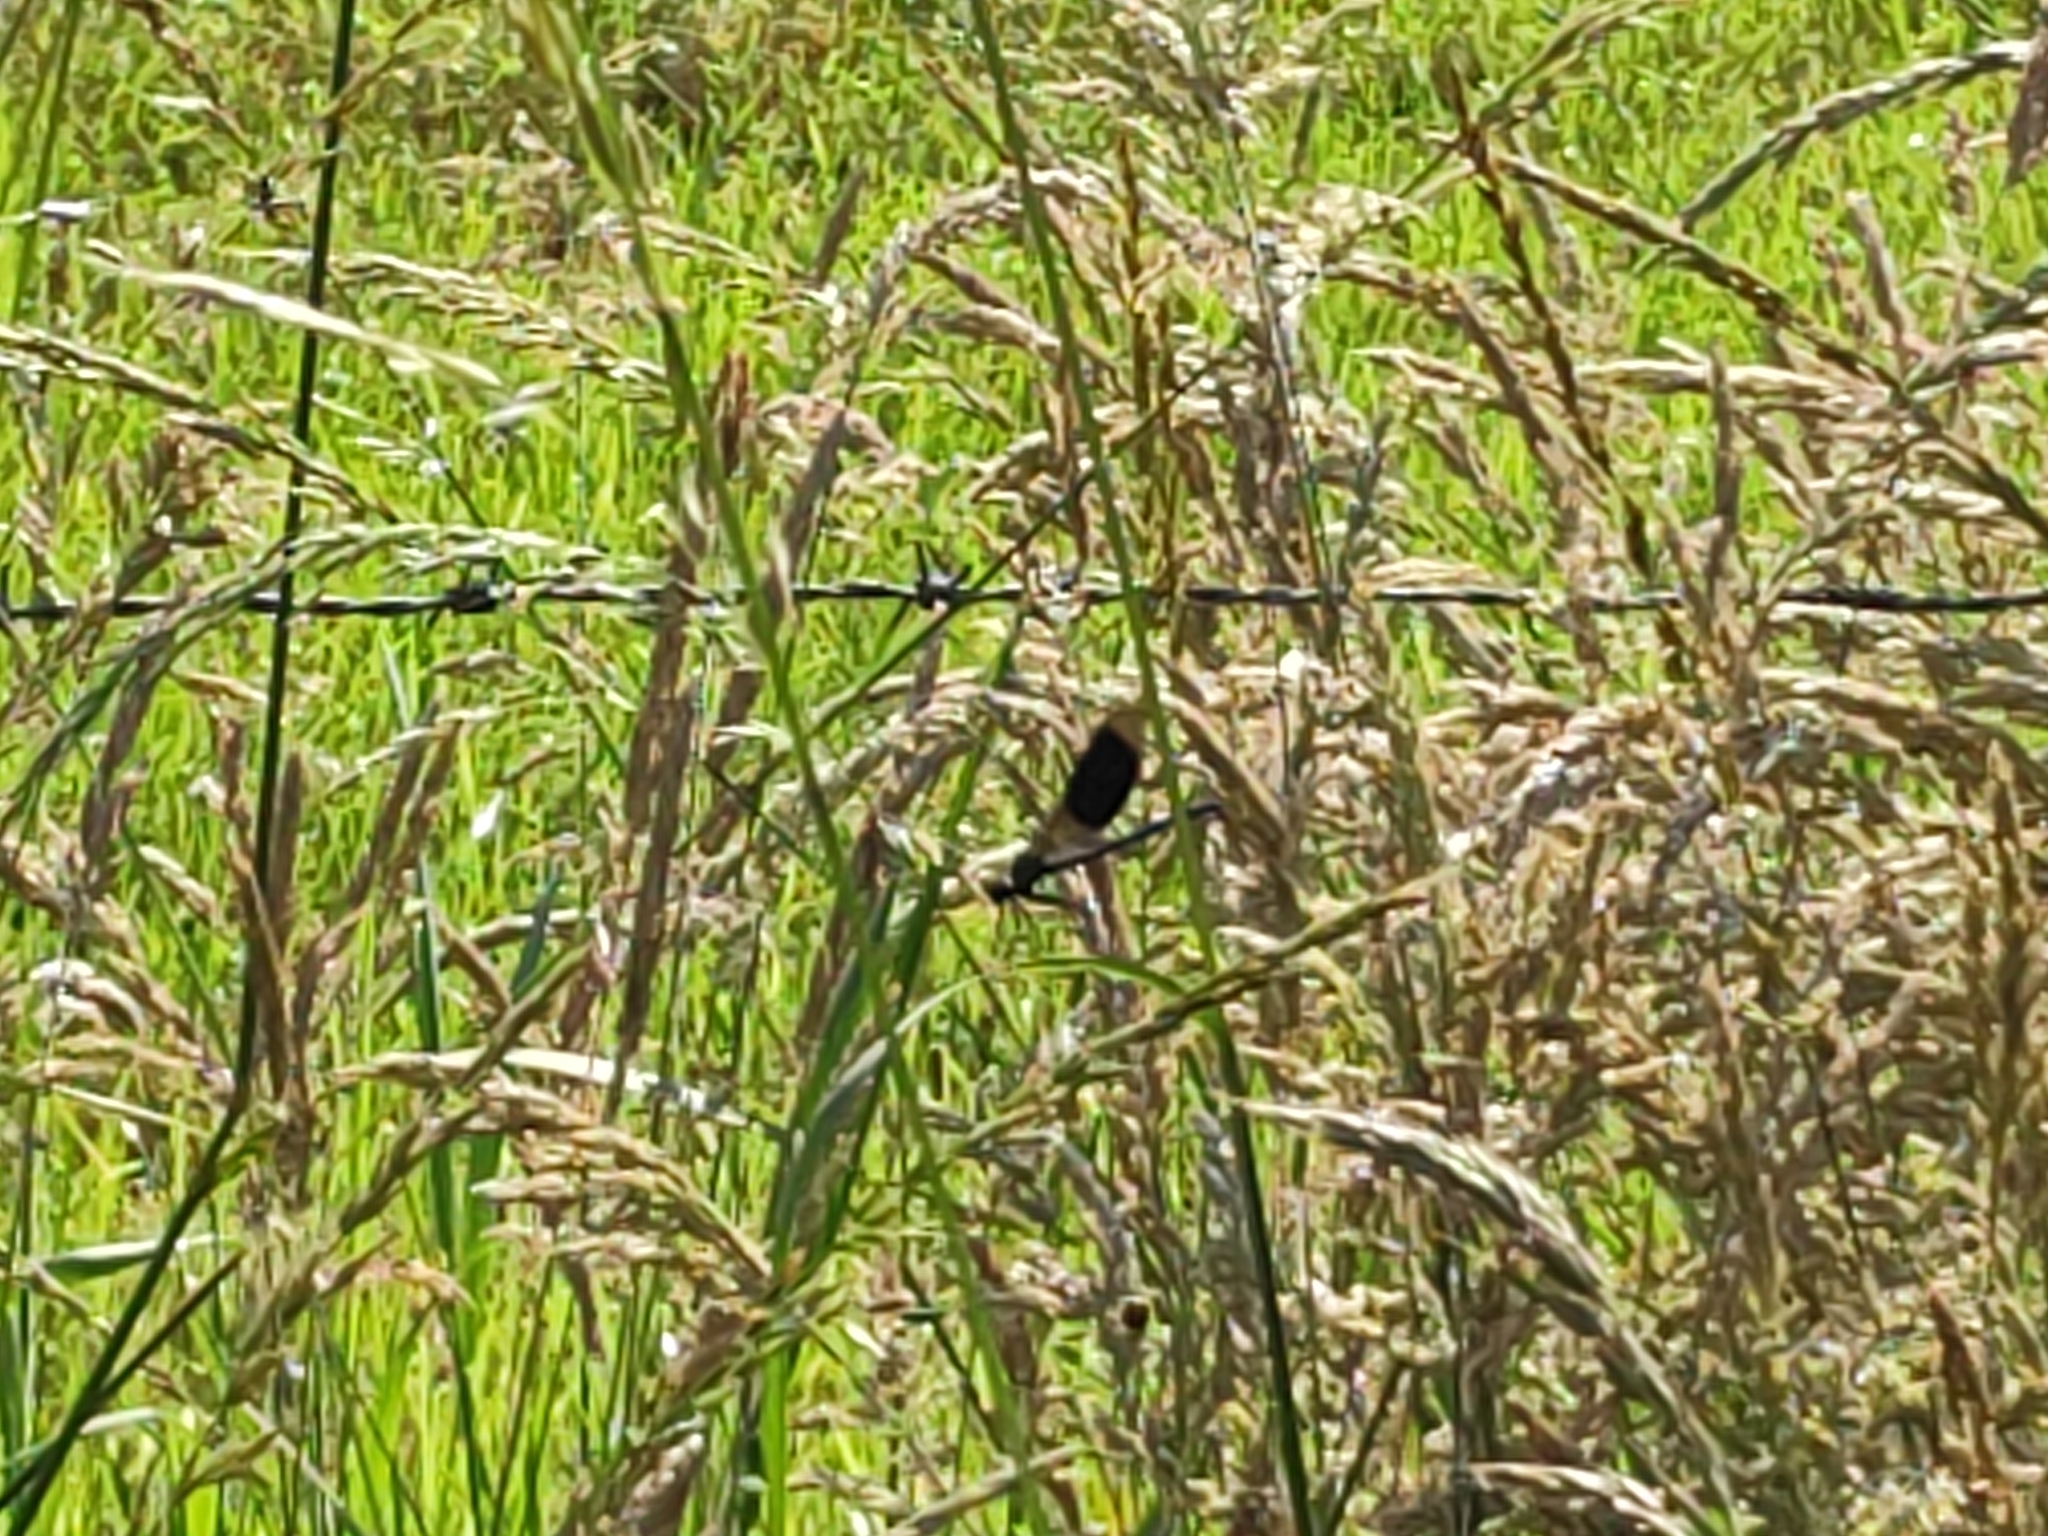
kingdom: Animalia
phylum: Arthropoda
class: Insecta
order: Odonata
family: Calopterygidae
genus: Calopteryx
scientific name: Calopteryx splendens
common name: Banded demoiselle
